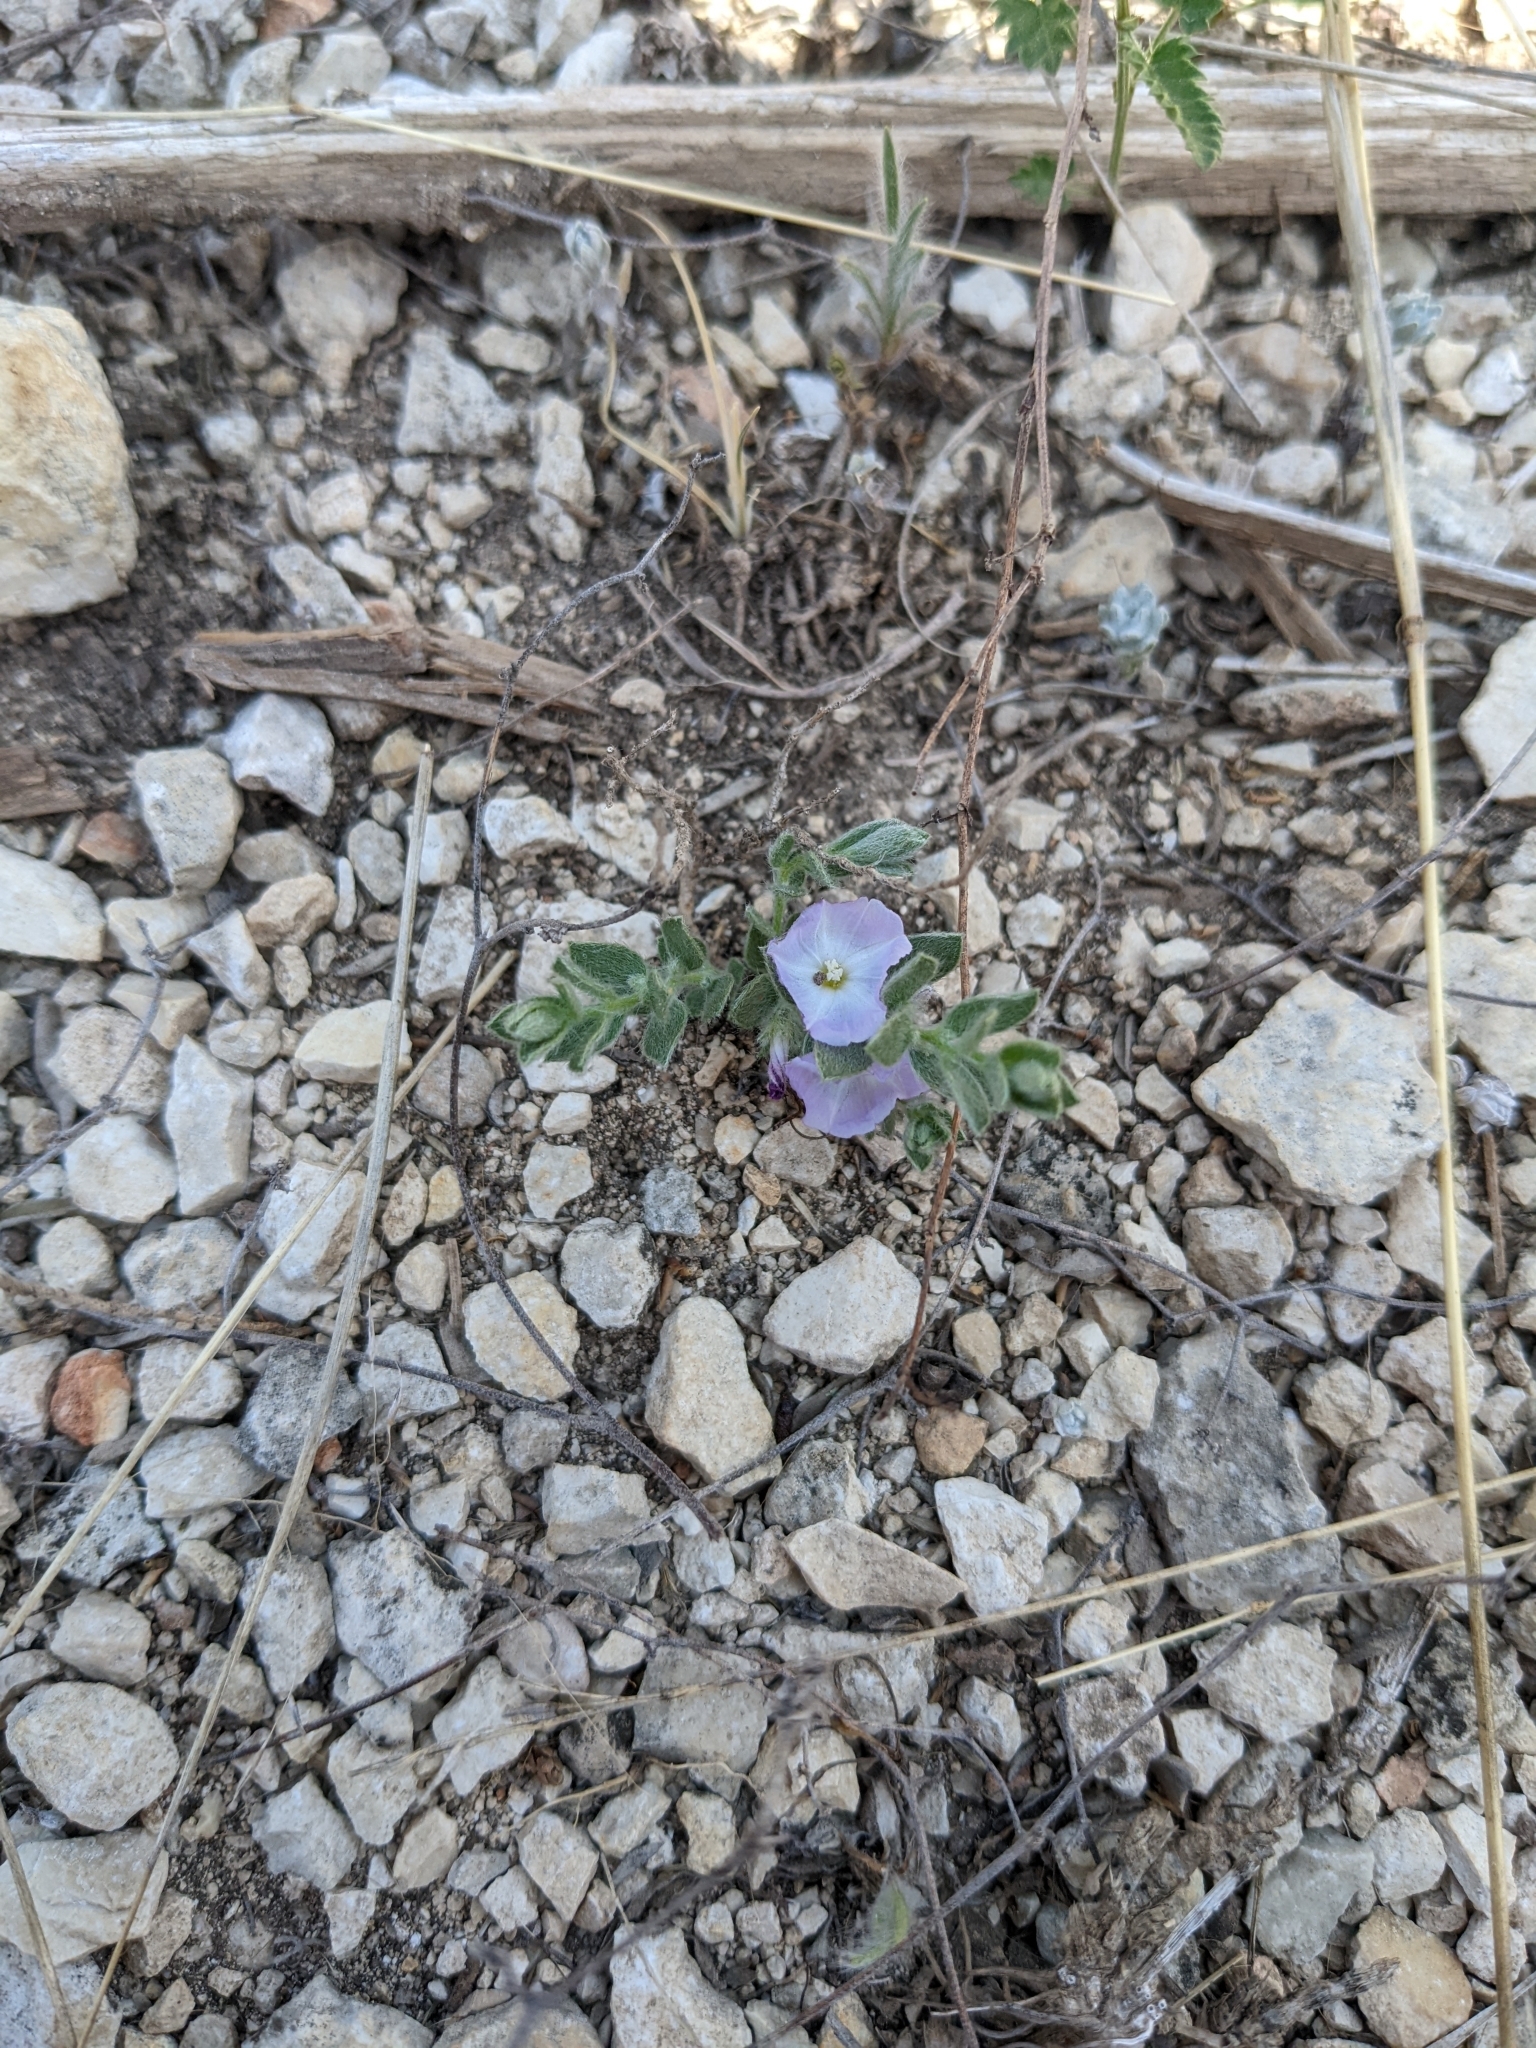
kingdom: Plantae
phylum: Tracheophyta
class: Magnoliopsida
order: Solanales
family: Convolvulaceae
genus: Evolvulus
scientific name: Evolvulus nuttallianus
